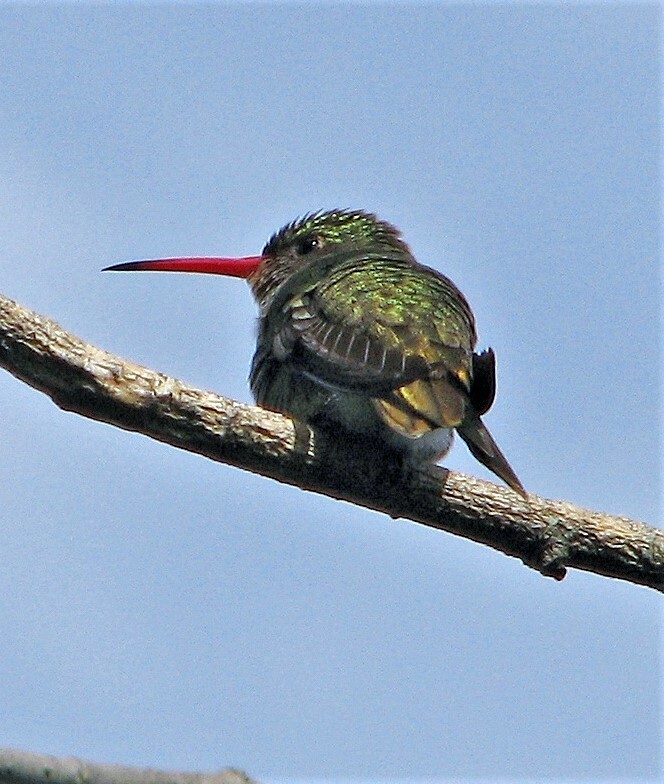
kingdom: Animalia
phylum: Chordata
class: Aves
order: Apodiformes
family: Trochilidae
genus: Hylocharis
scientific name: Hylocharis chrysura
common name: Gilded sapphire
